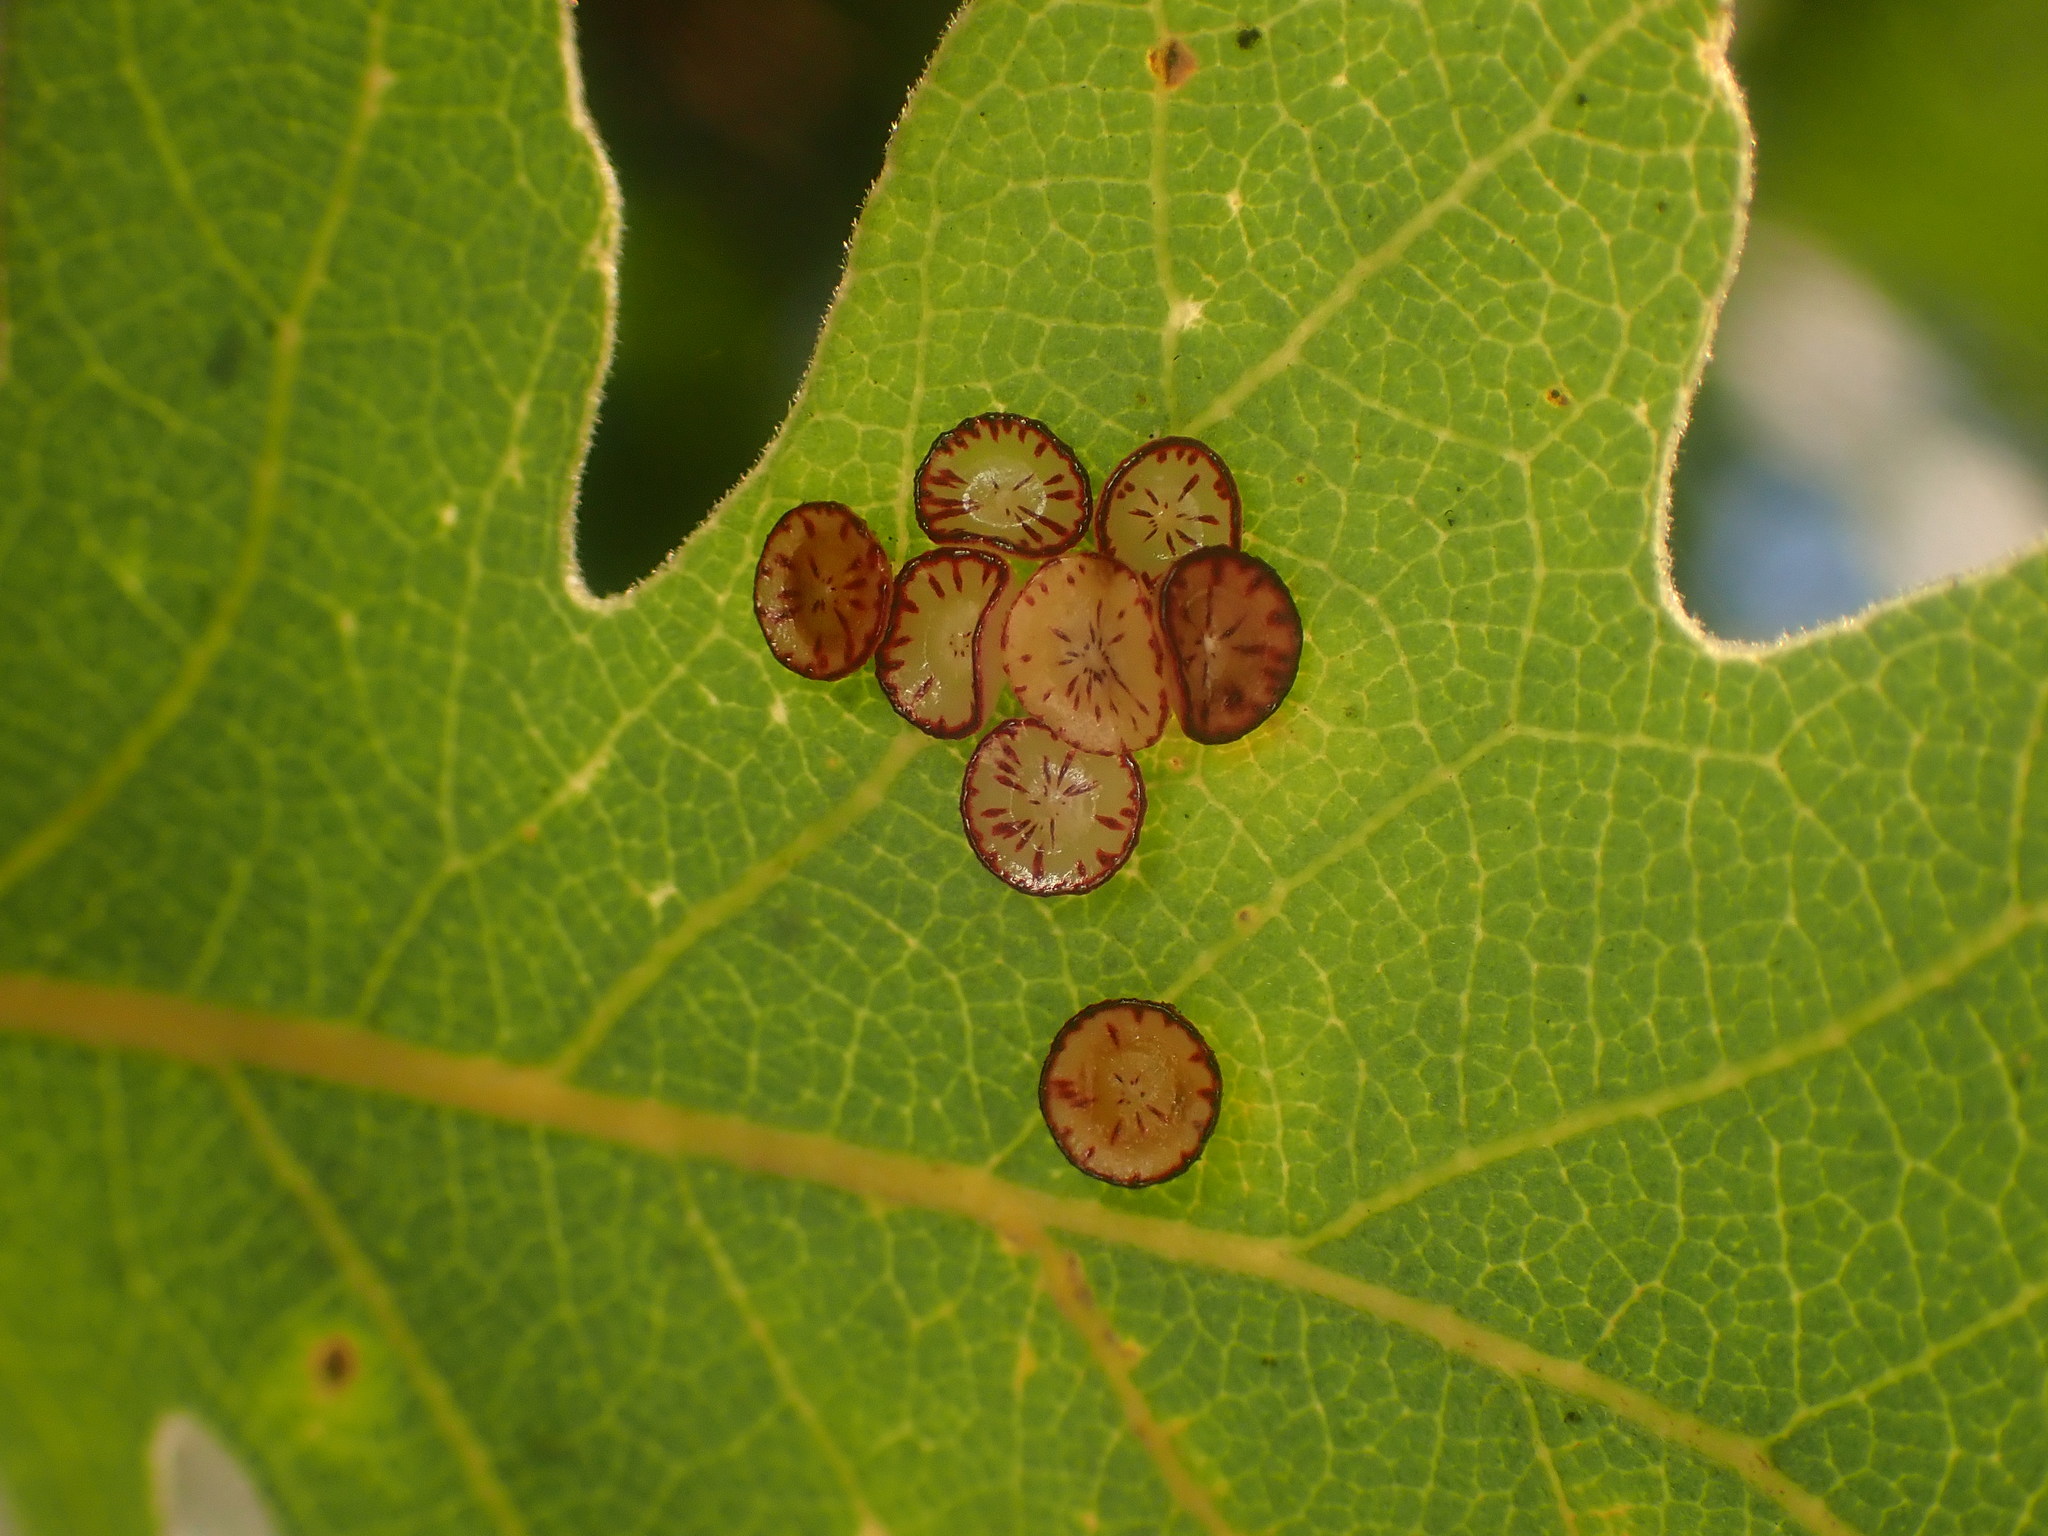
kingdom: Animalia
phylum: Arthropoda
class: Insecta
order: Hymenoptera
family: Cynipidae
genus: Andricus
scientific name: Andricus
